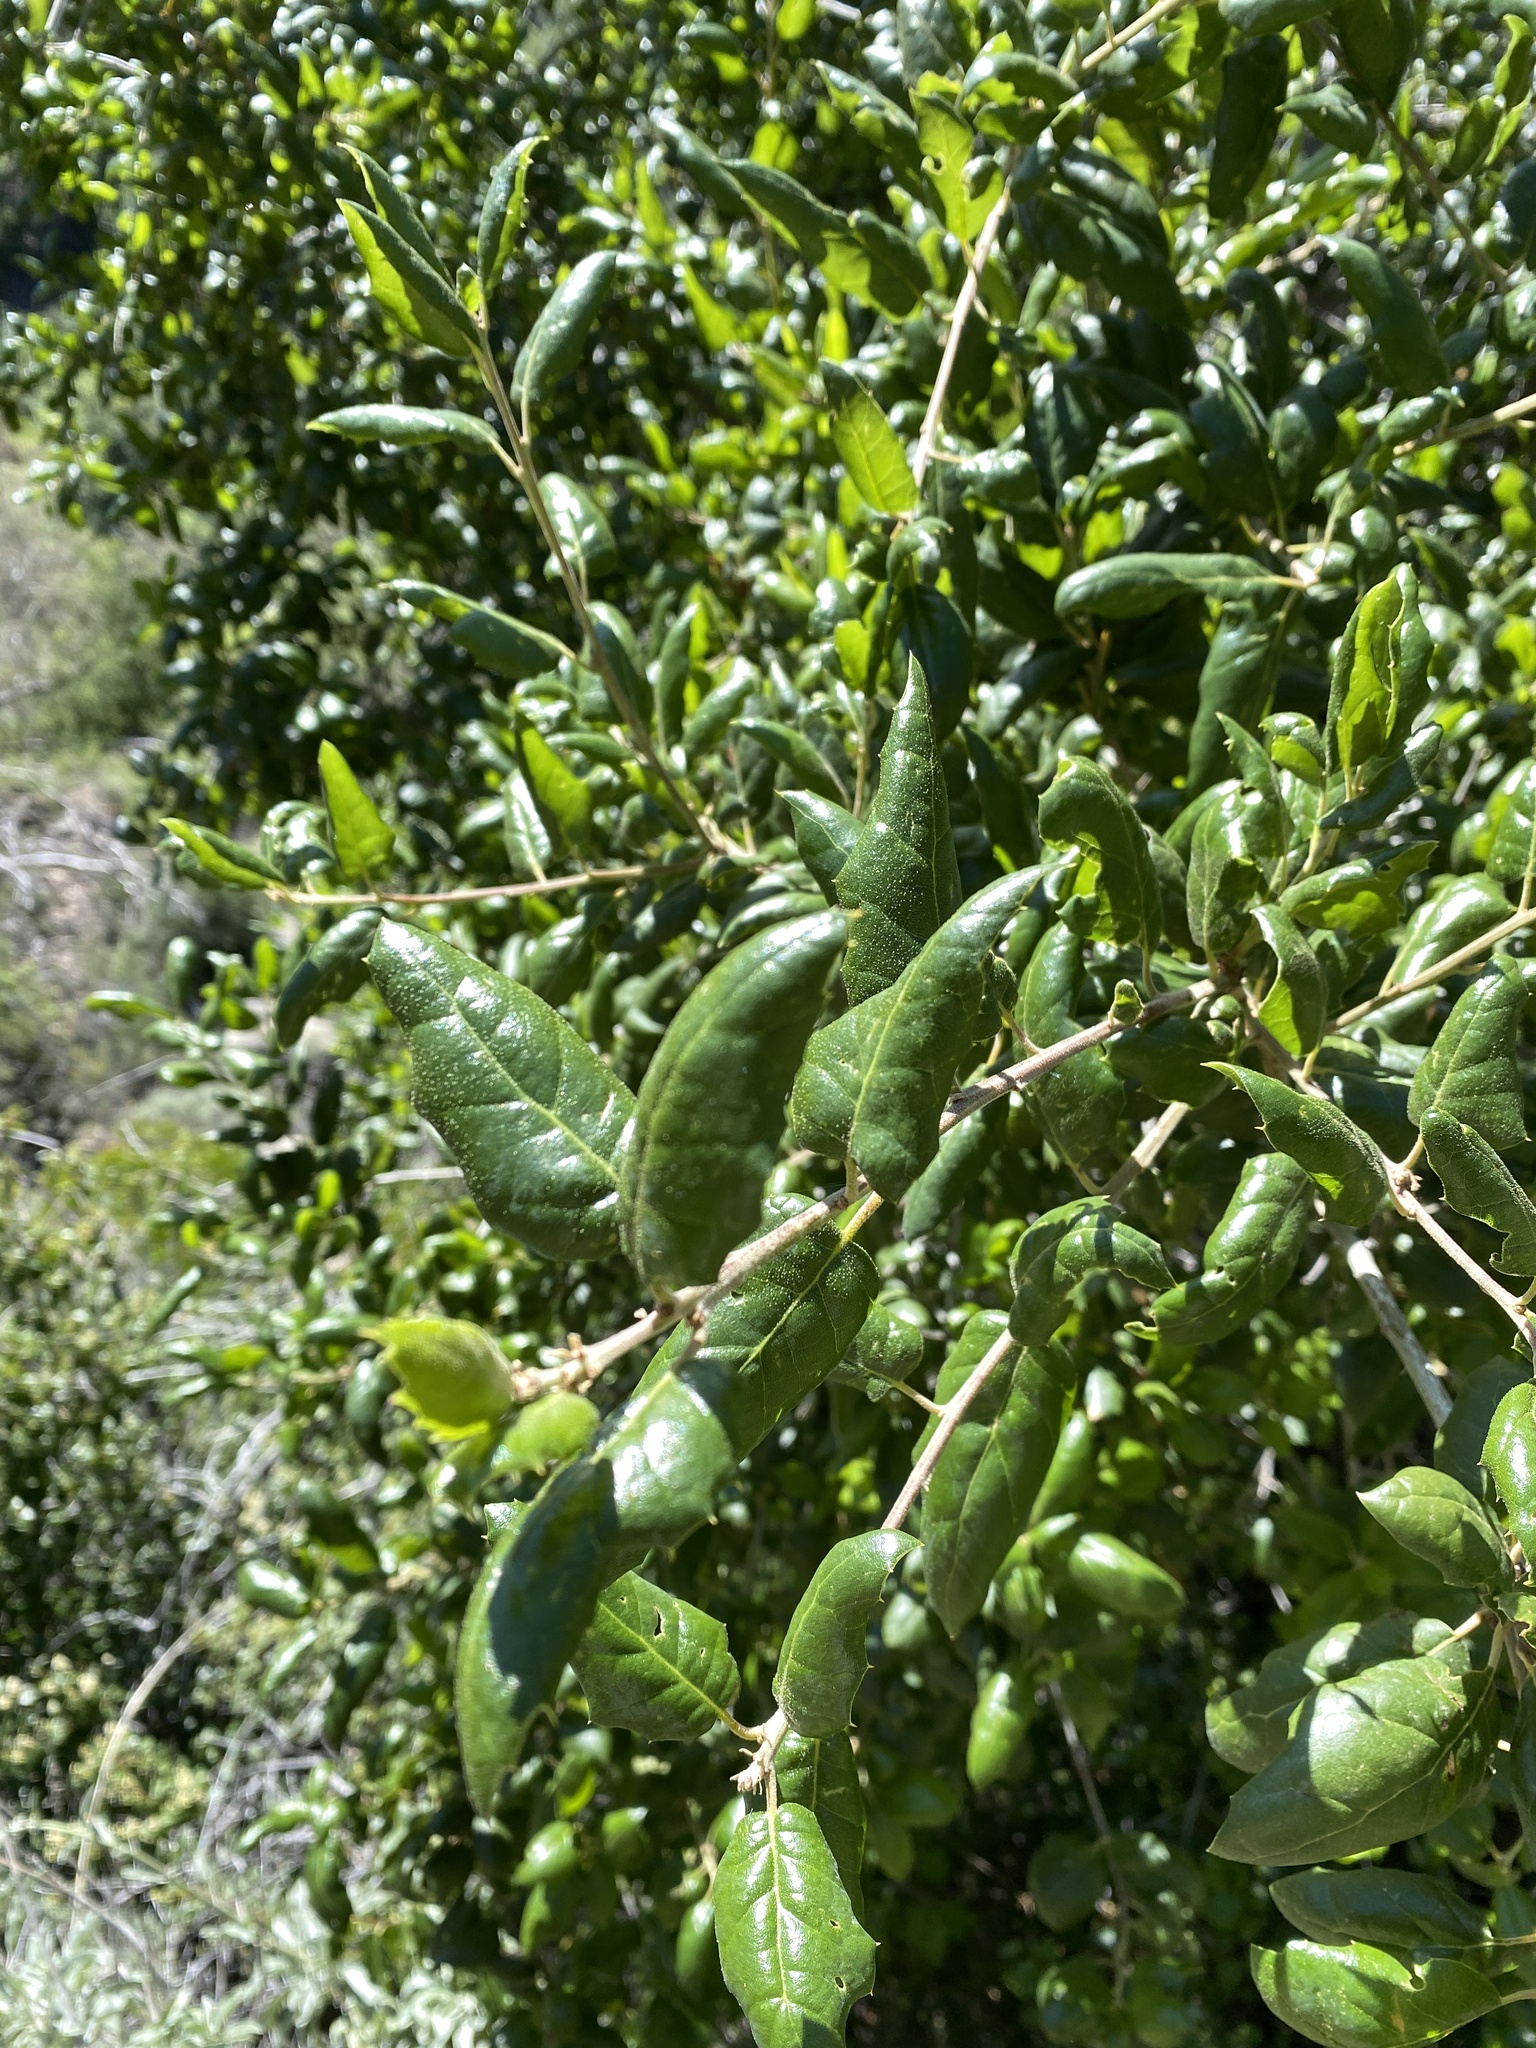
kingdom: Plantae
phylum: Tracheophyta
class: Magnoliopsida
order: Fagales
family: Fagaceae
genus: Quercus
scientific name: Quercus agrifolia
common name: California live oak
